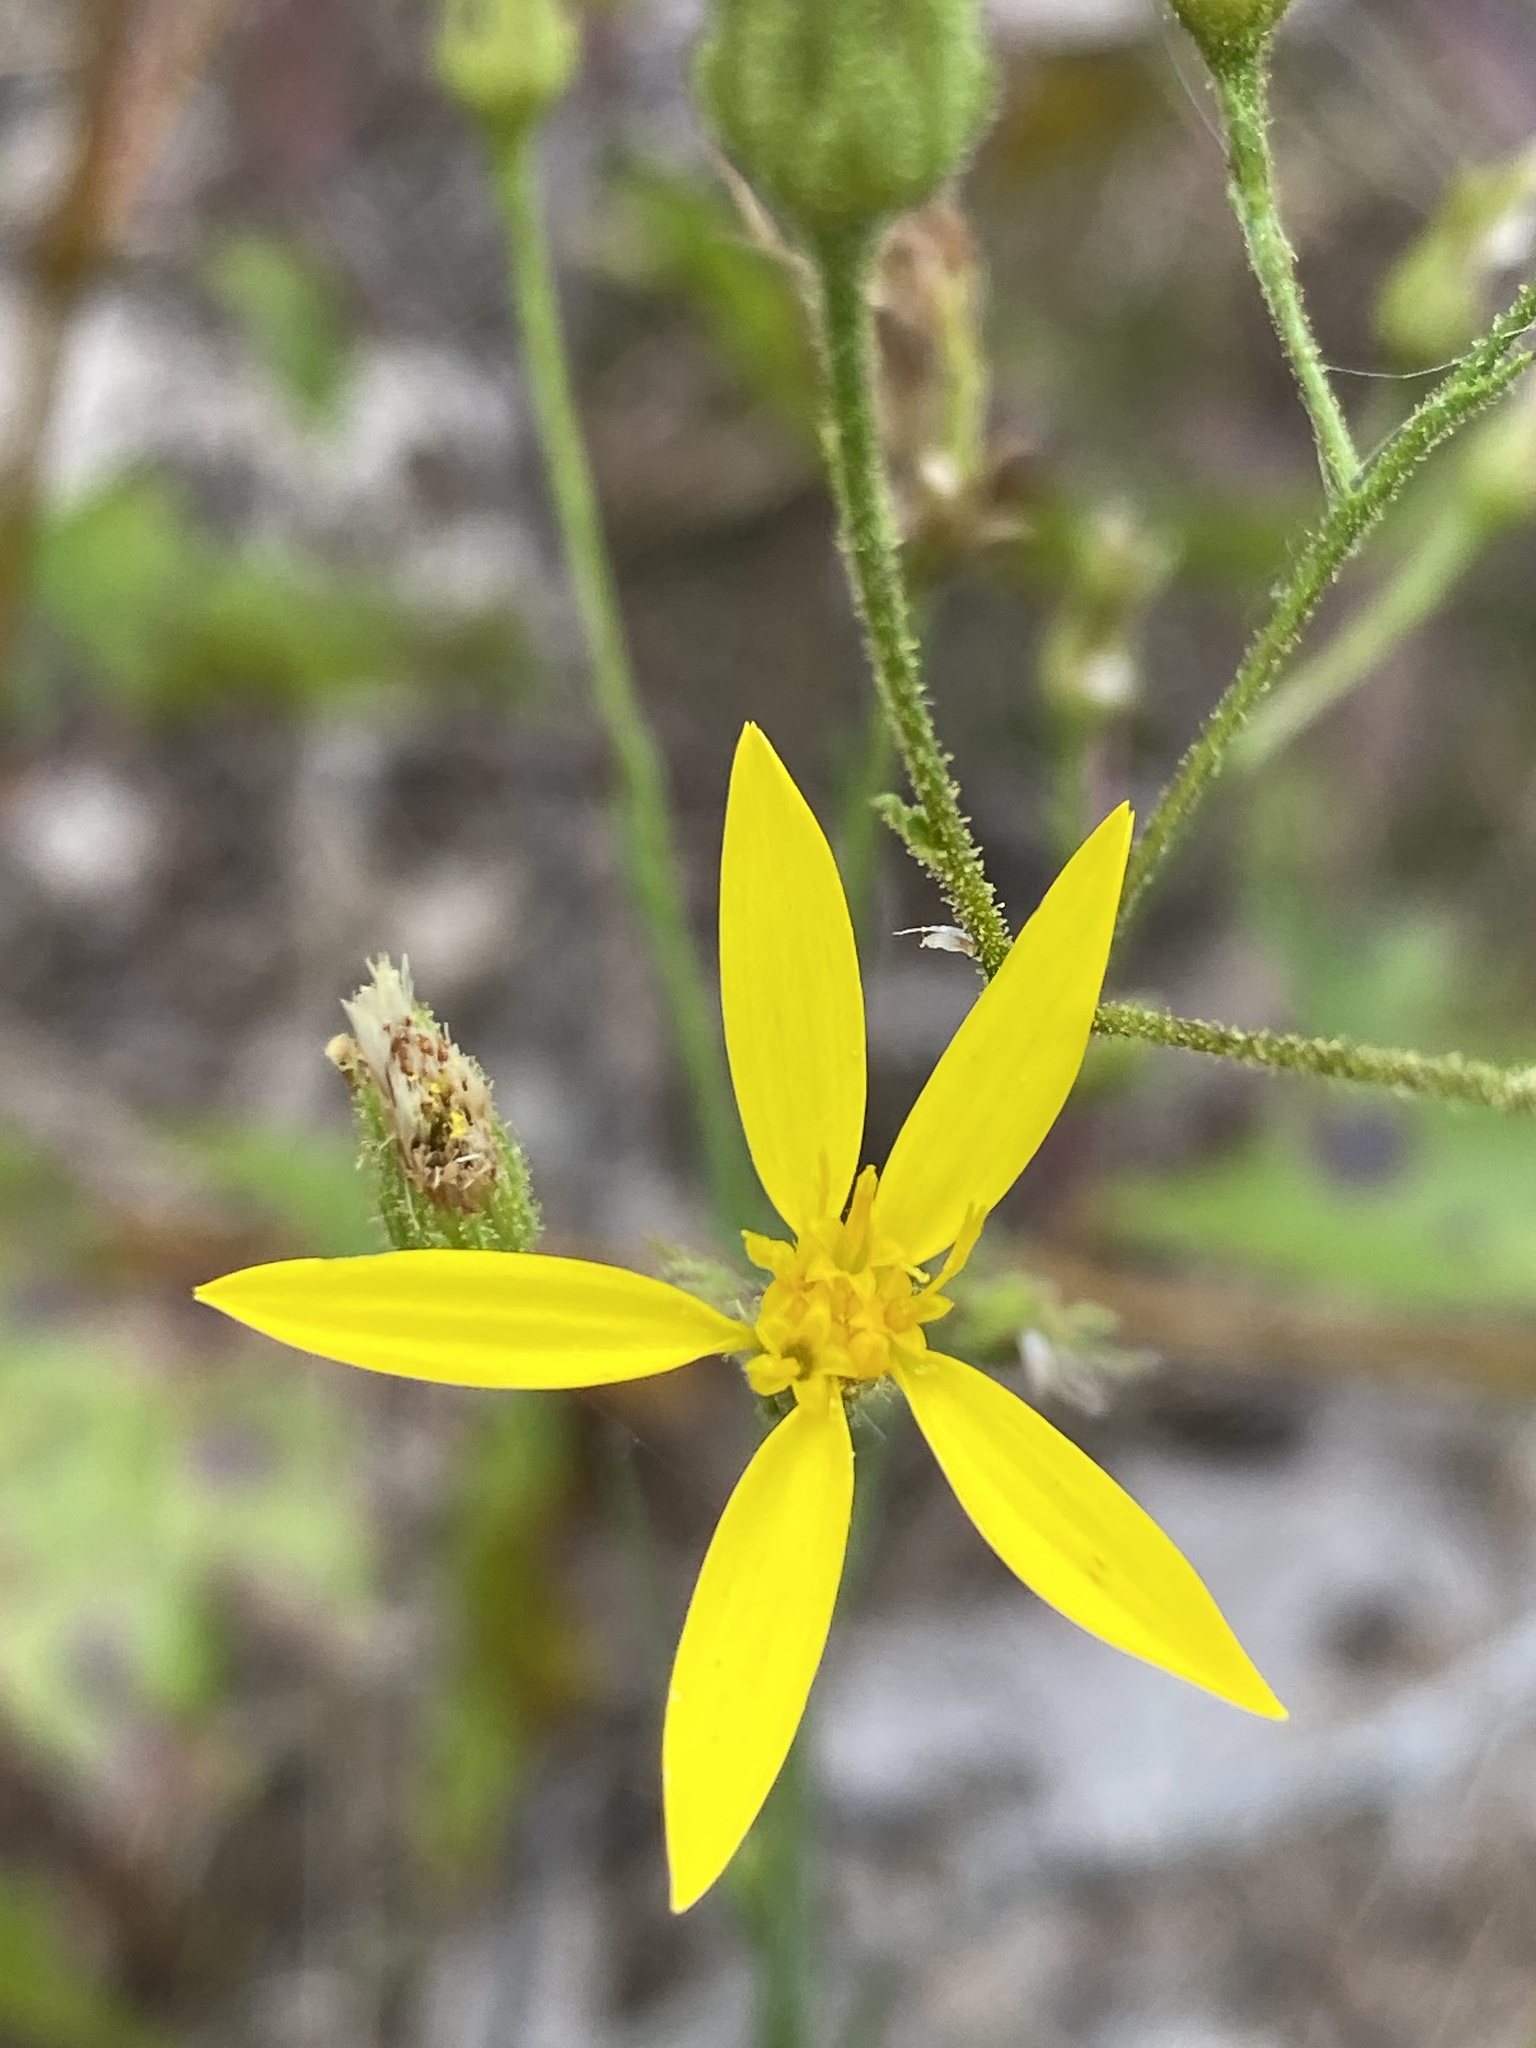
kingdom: Plantae
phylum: Tracheophyta
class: Magnoliopsida
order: Asterales
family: Asteraceae
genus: Pityopsis
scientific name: Pityopsis aspera
